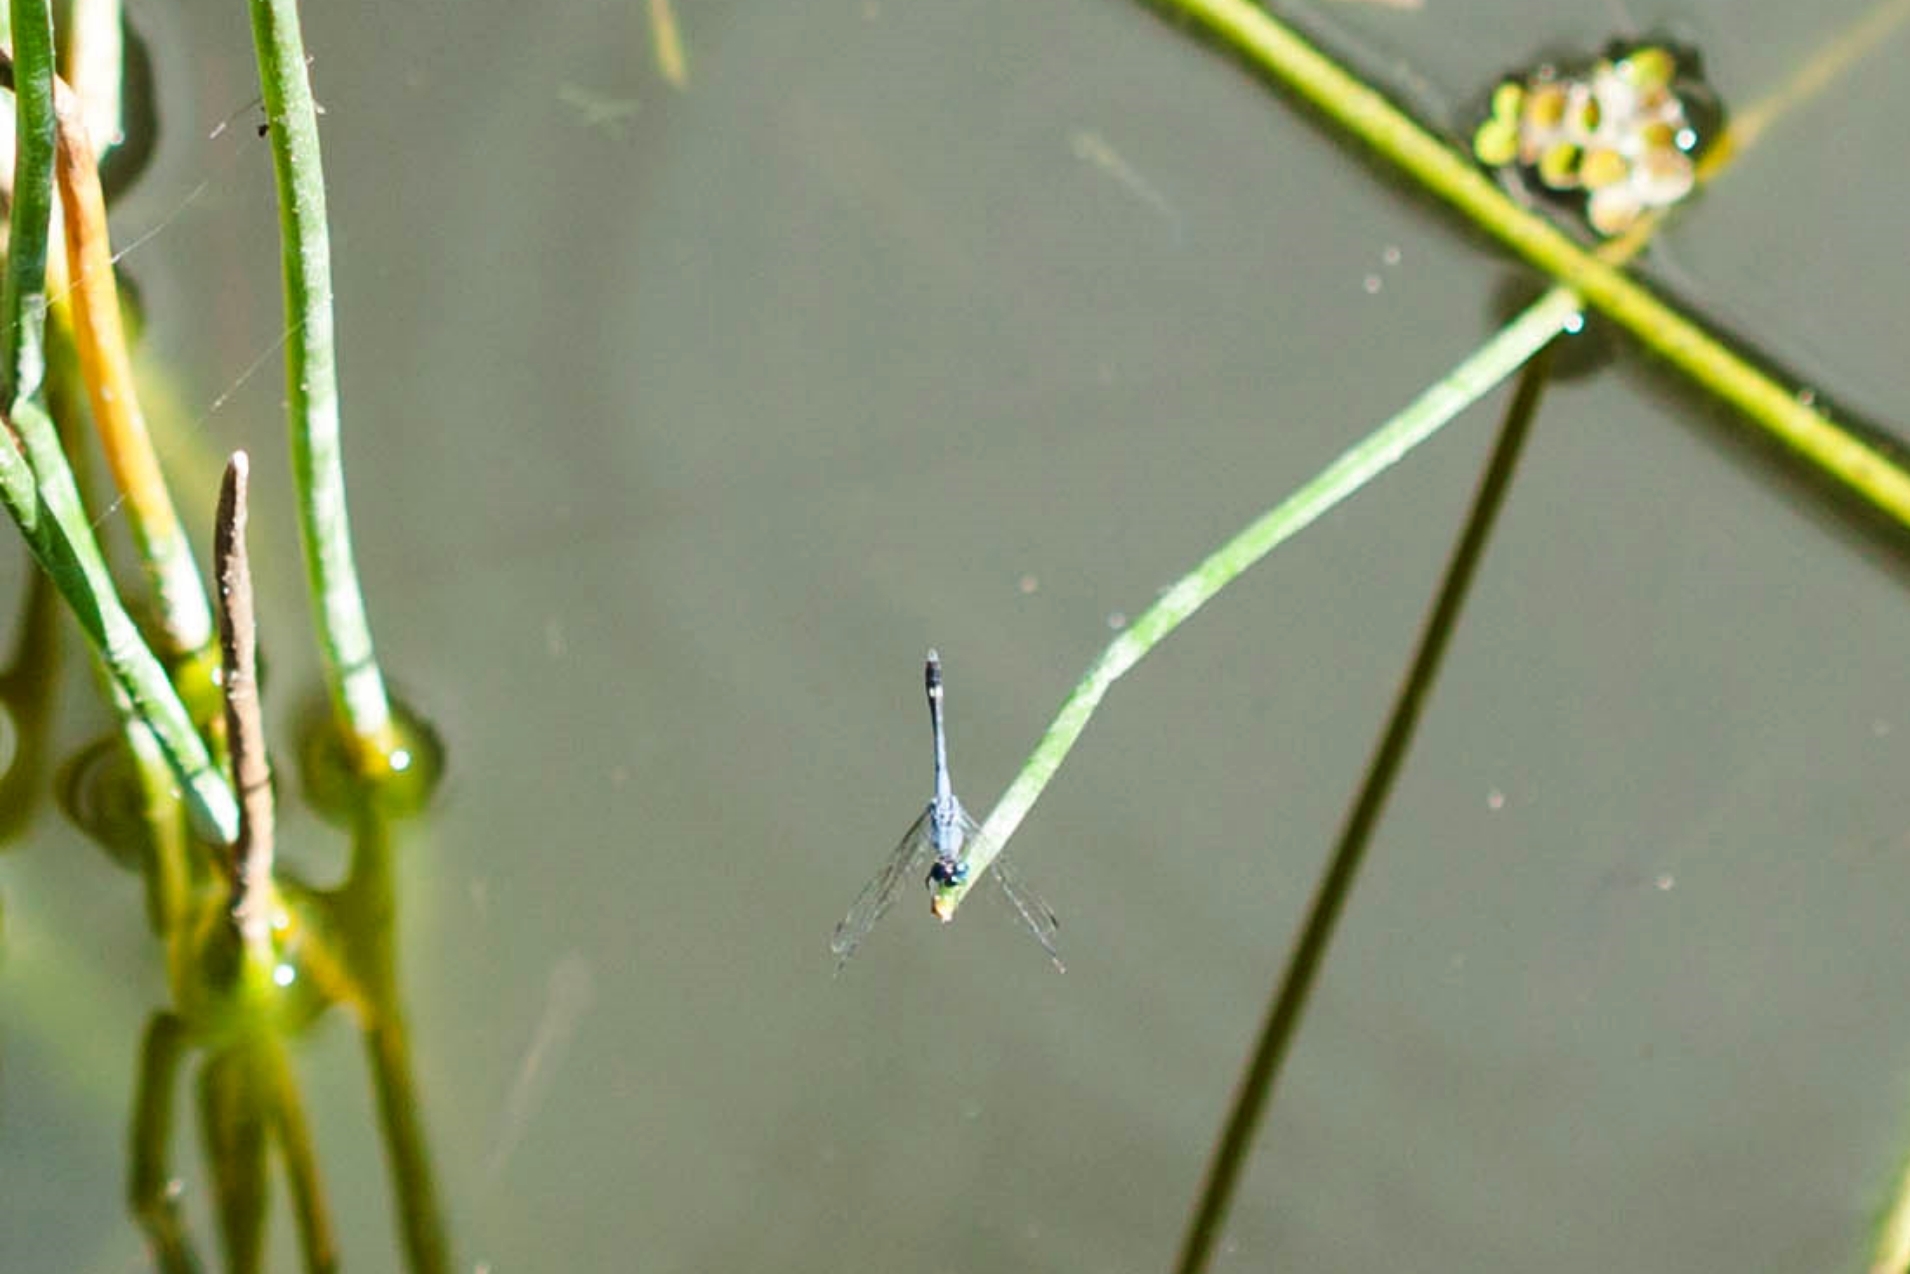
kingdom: Animalia
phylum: Arthropoda
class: Insecta
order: Odonata
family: Libellulidae
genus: Micrathyria
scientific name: Micrathyria aequalis
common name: Spot-tailed dasher
